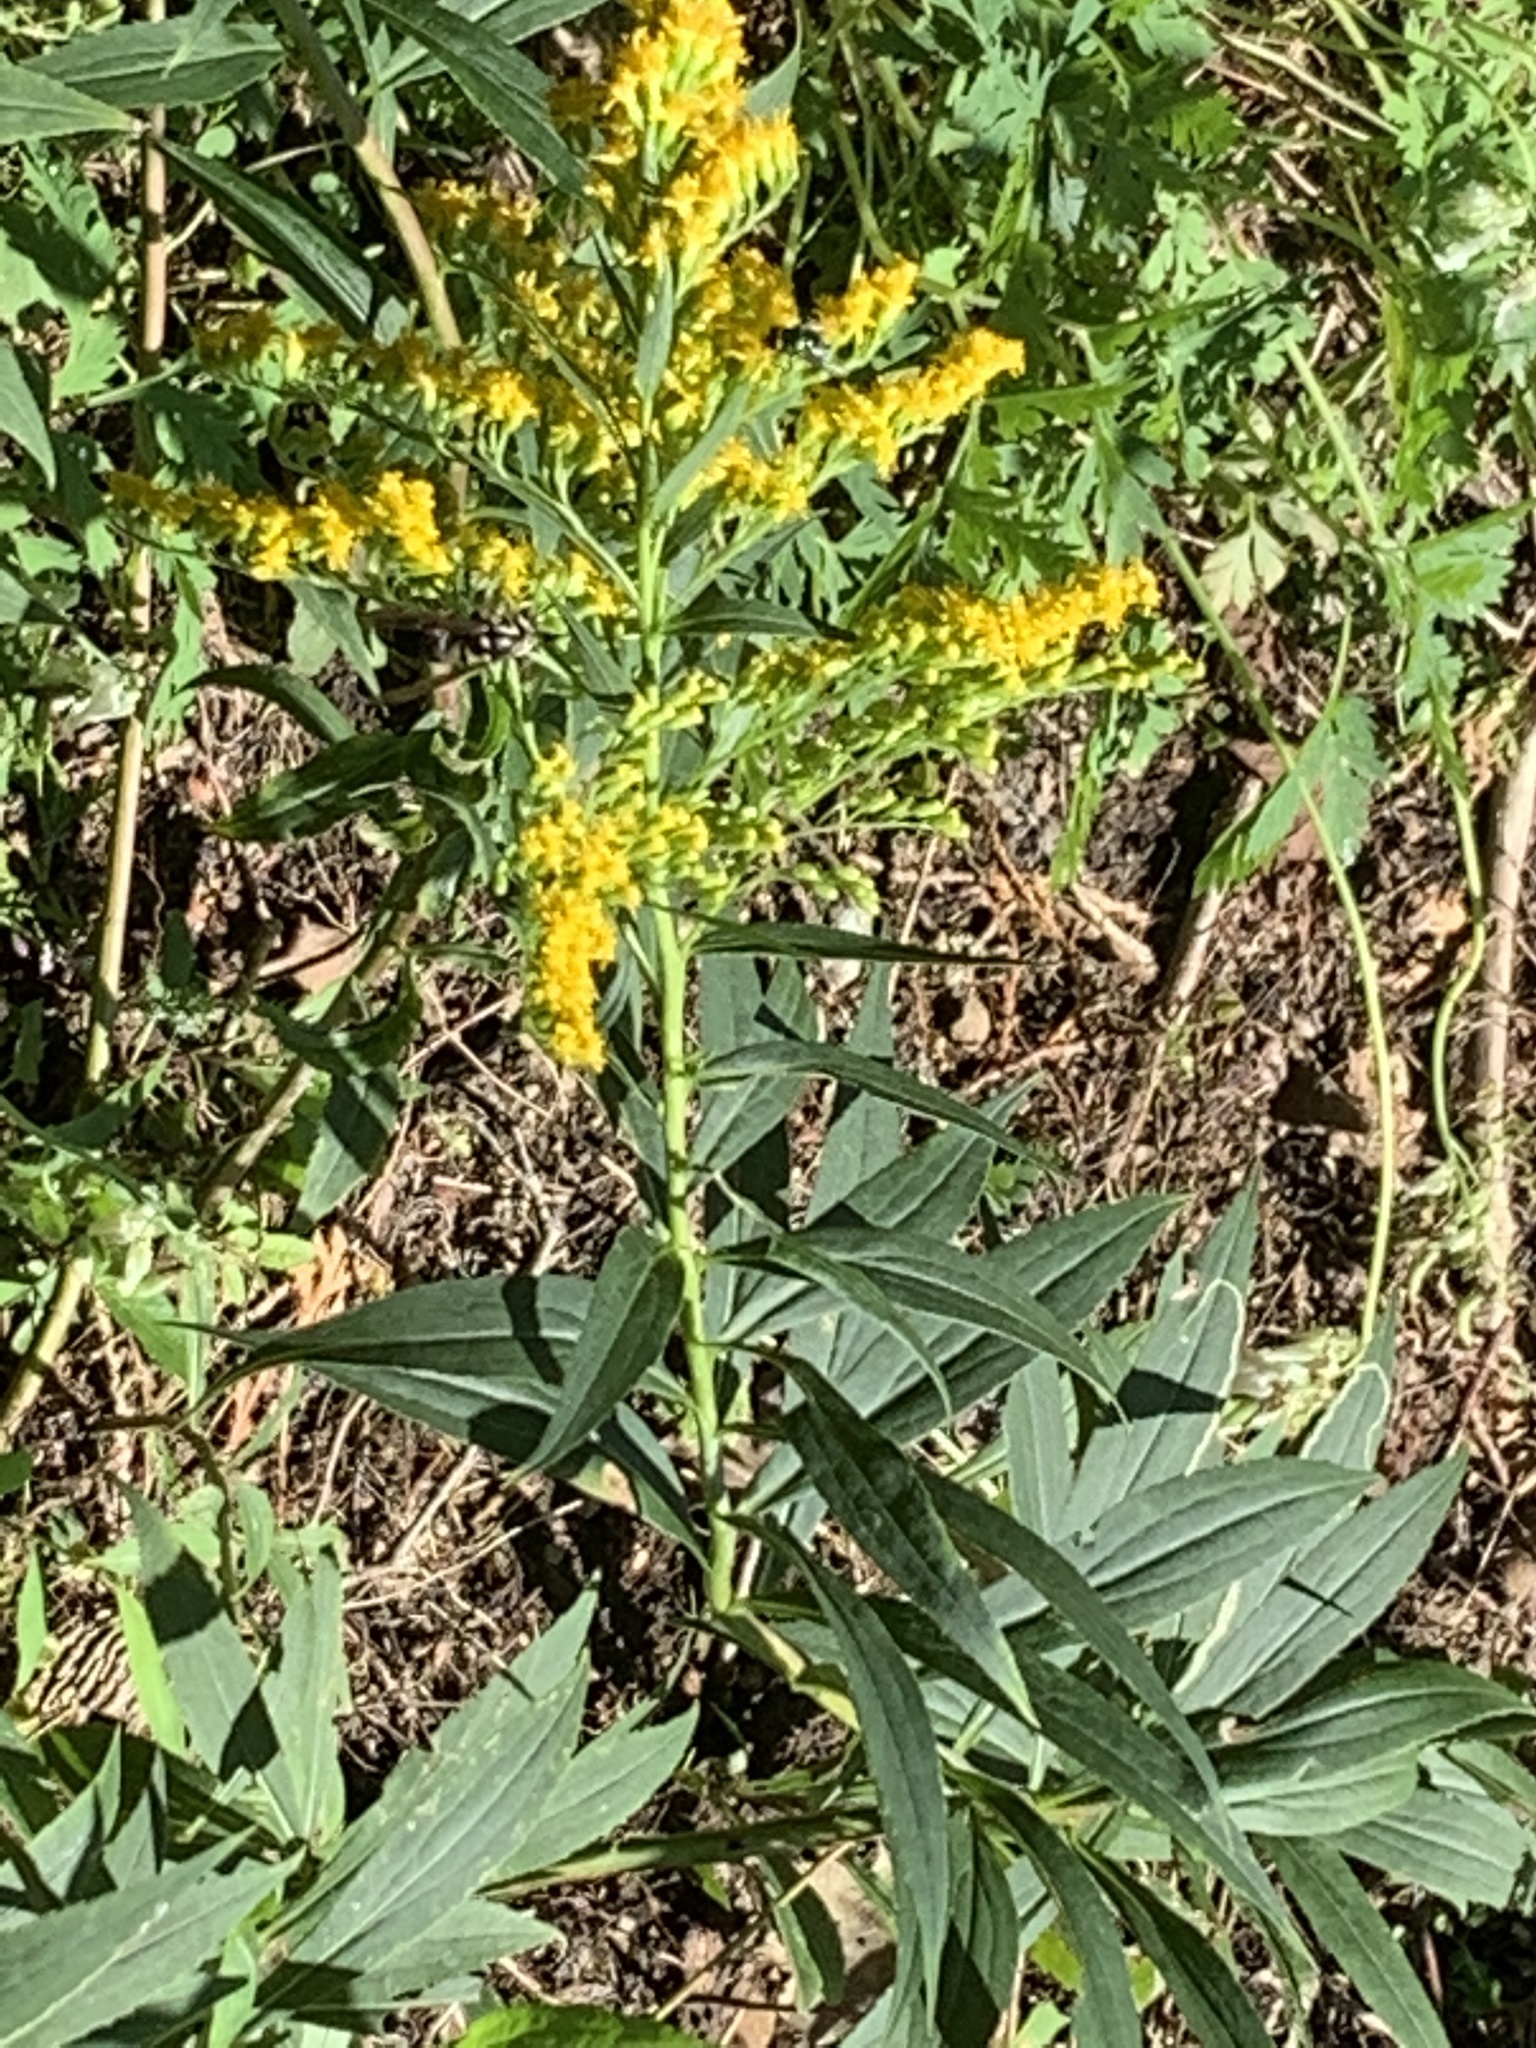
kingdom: Plantae
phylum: Tracheophyta
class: Magnoliopsida
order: Asterales
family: Asteraceae
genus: Solidago
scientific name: Solidago altissima
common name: Late goldenrod
